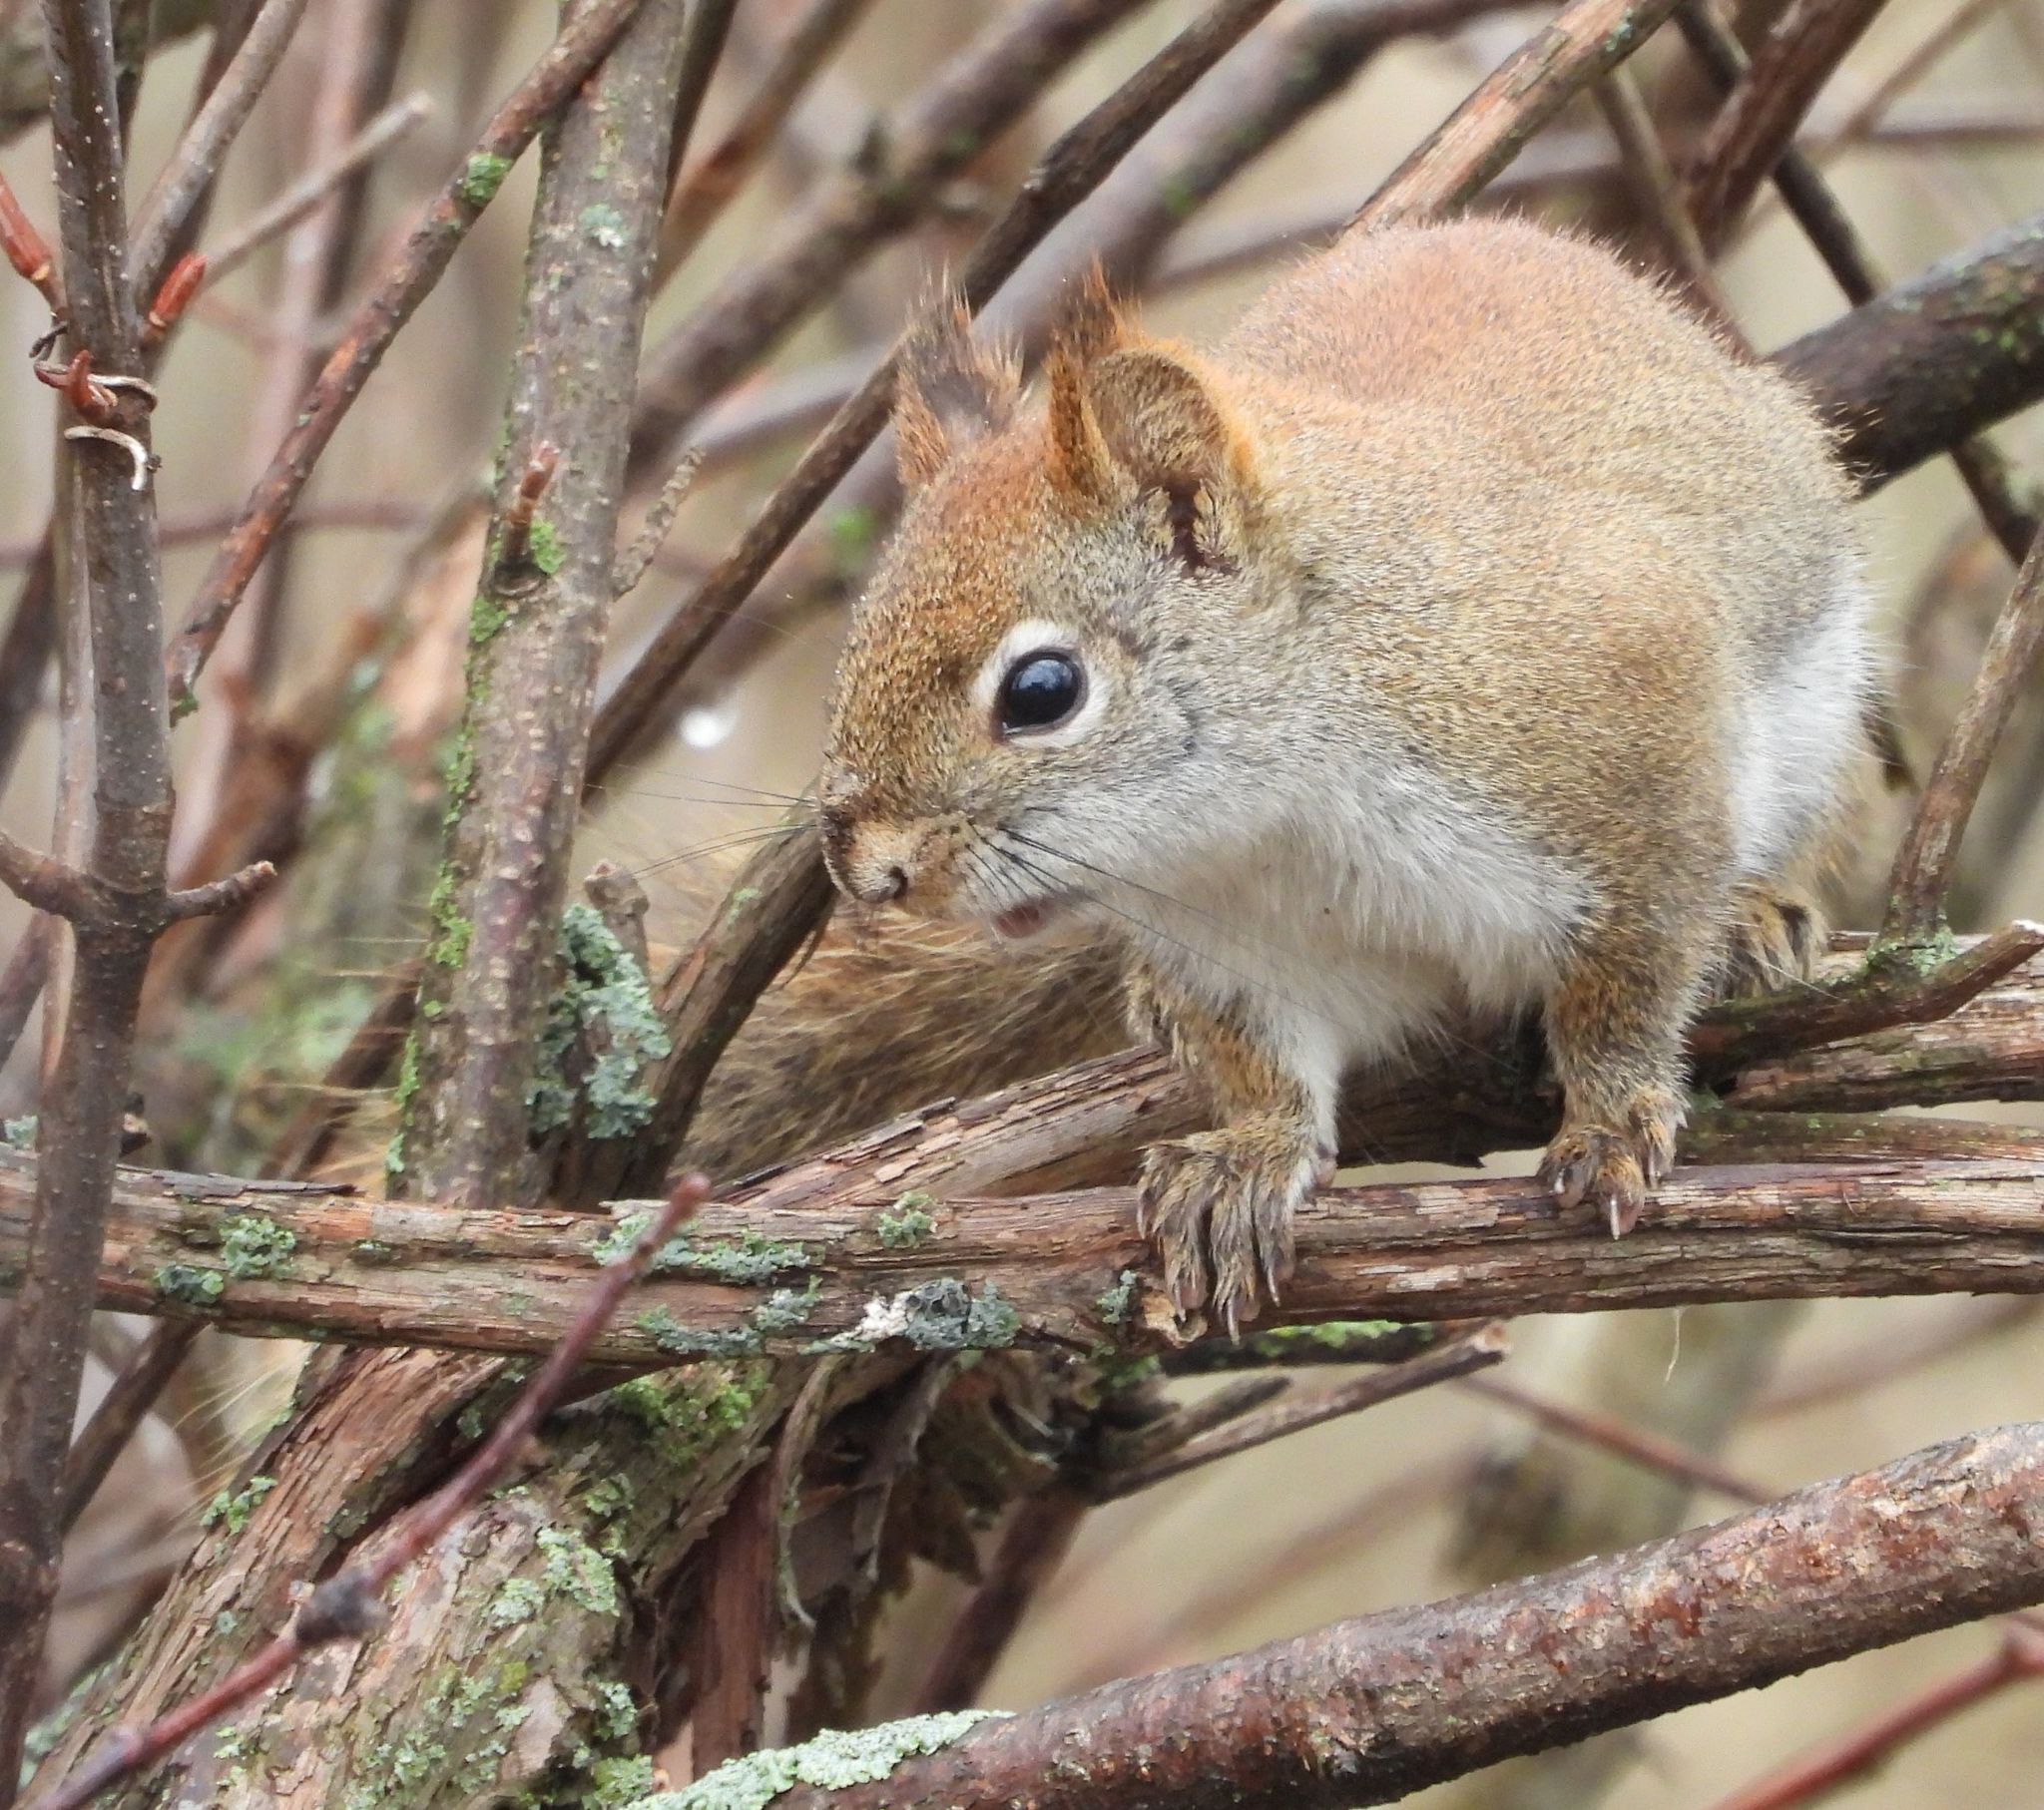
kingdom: Animalia
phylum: Chordata
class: Mammalia
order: Rodentia
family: Sciuridae
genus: Tamiasciurus
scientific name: Tamiasciurus hudsonicus
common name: Red squirrel
